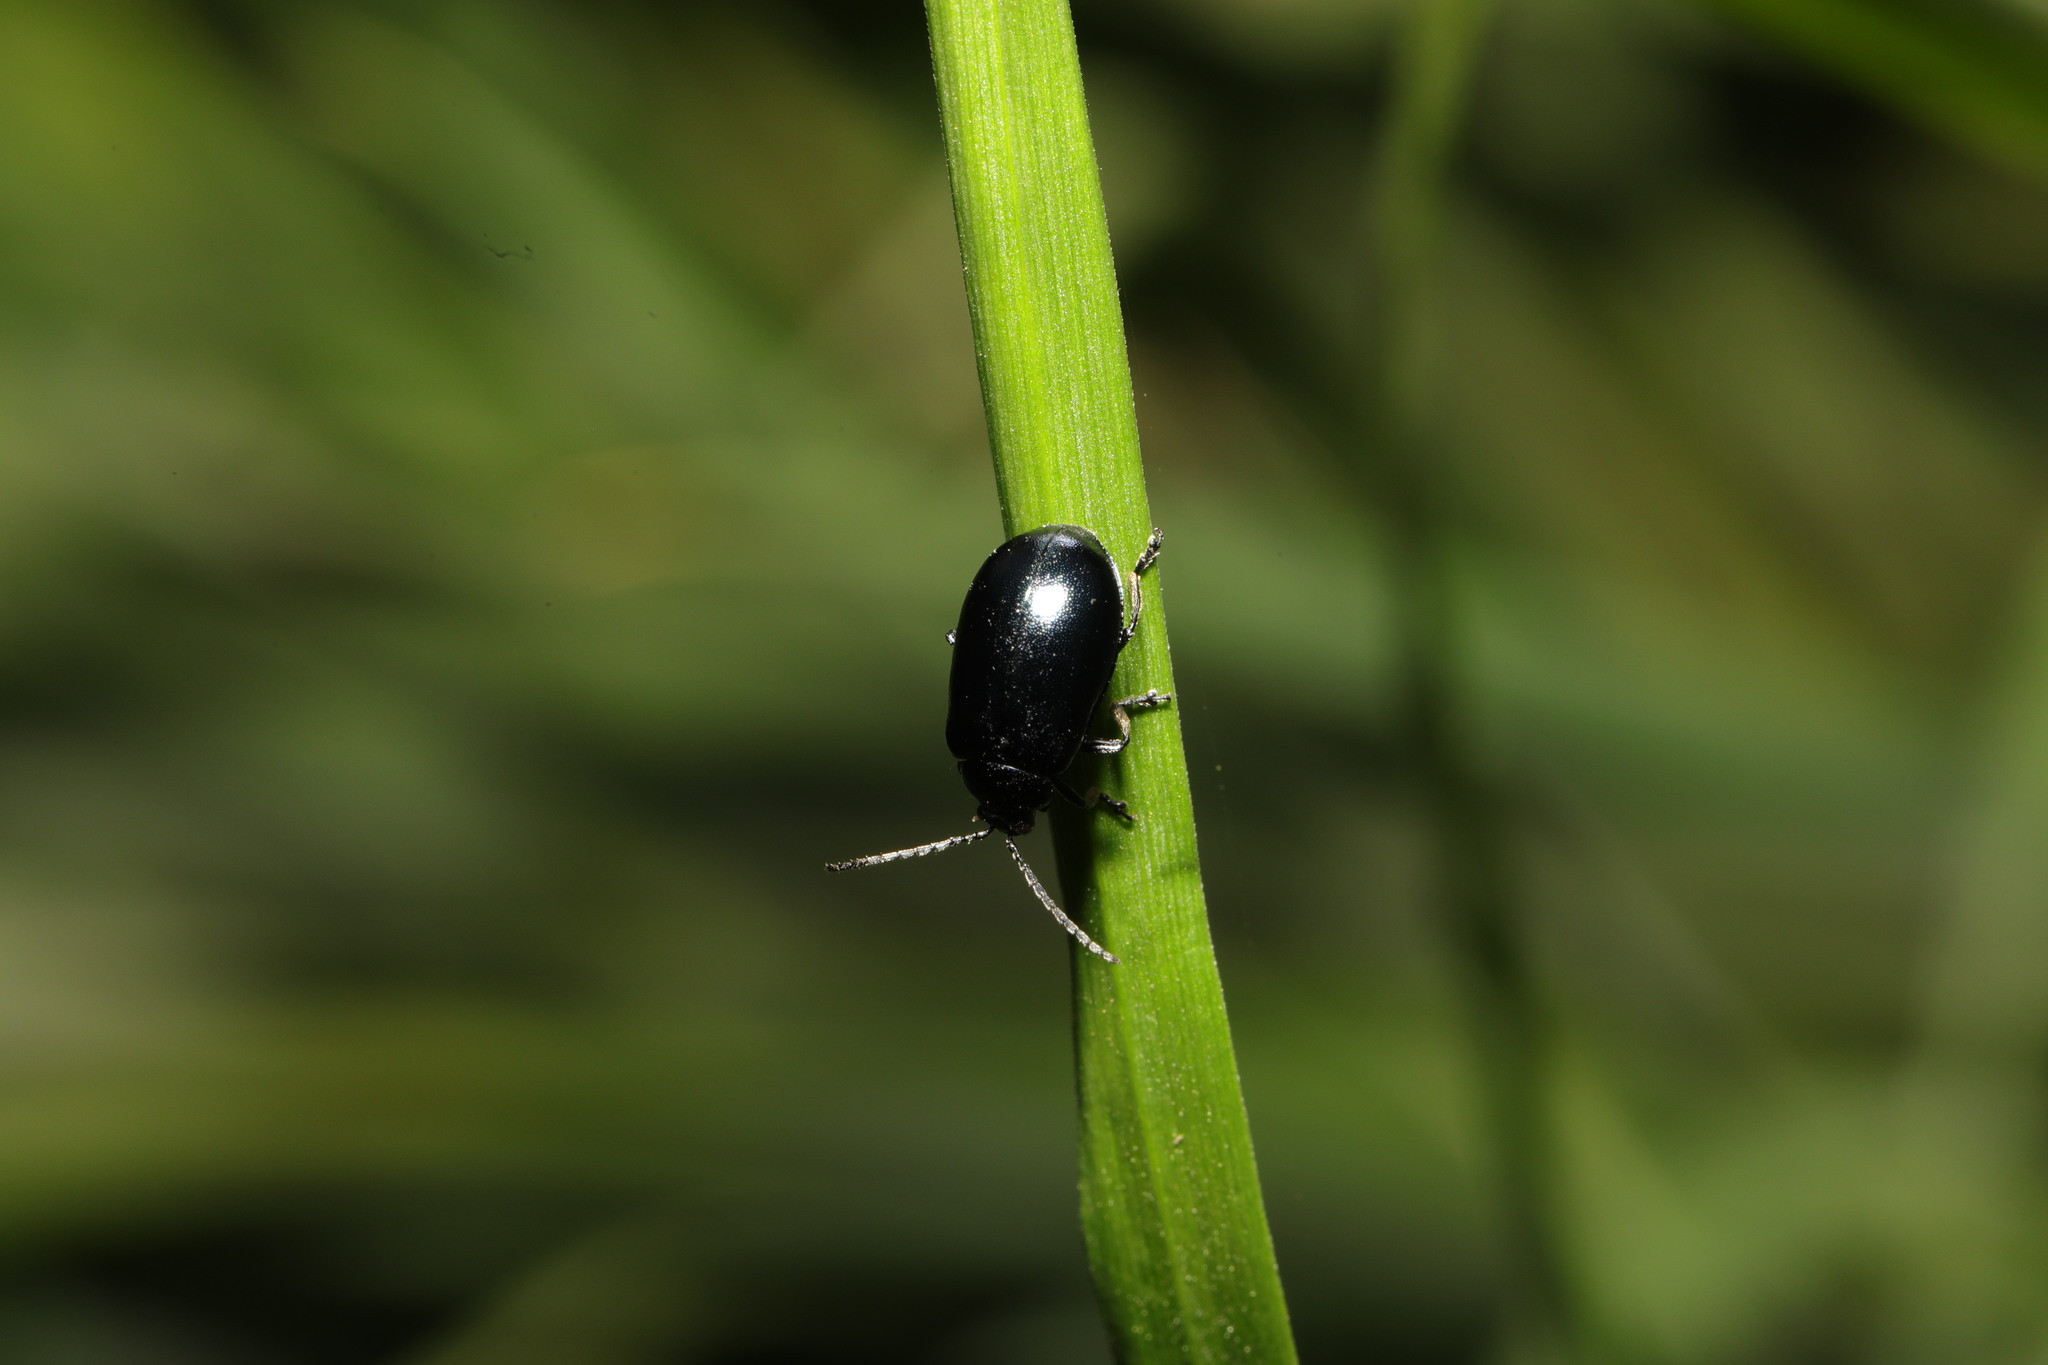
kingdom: Animalia
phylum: Arthropoda
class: Insecta
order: Coleoptera
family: Chrysomelidae
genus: Agelastica
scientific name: Agelastica alni
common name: Alder leaf beetle
